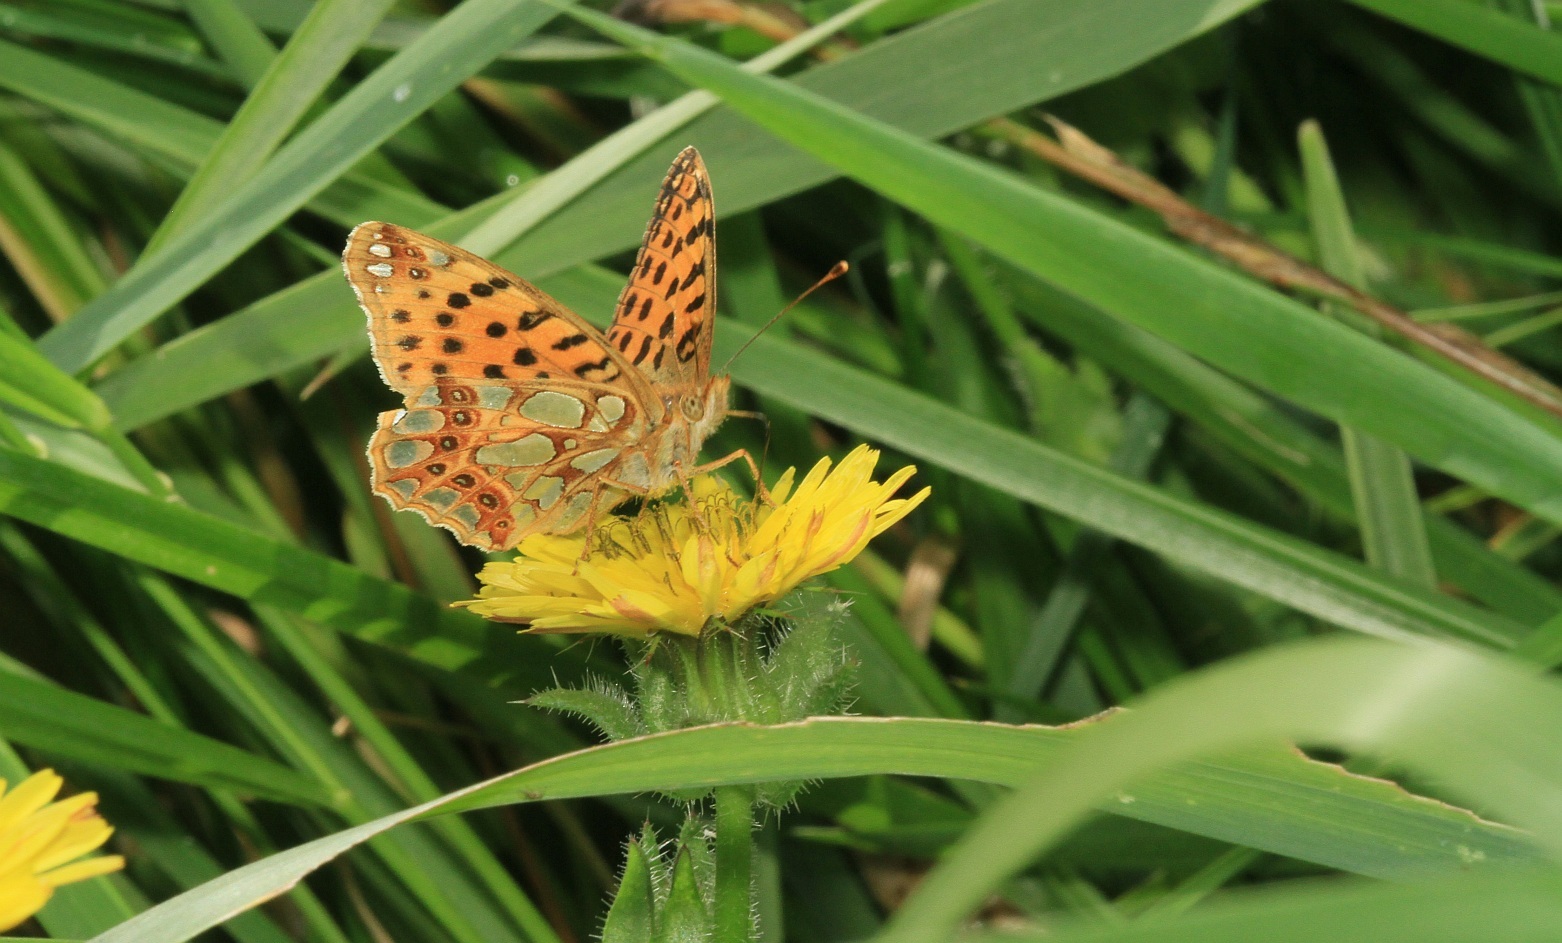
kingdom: Animalia
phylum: Arthropoda
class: Insecta
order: Lepidoptera
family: Nymphalidae
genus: Issoria
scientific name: Issoria lathonia
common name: Queen of spain fritillary
